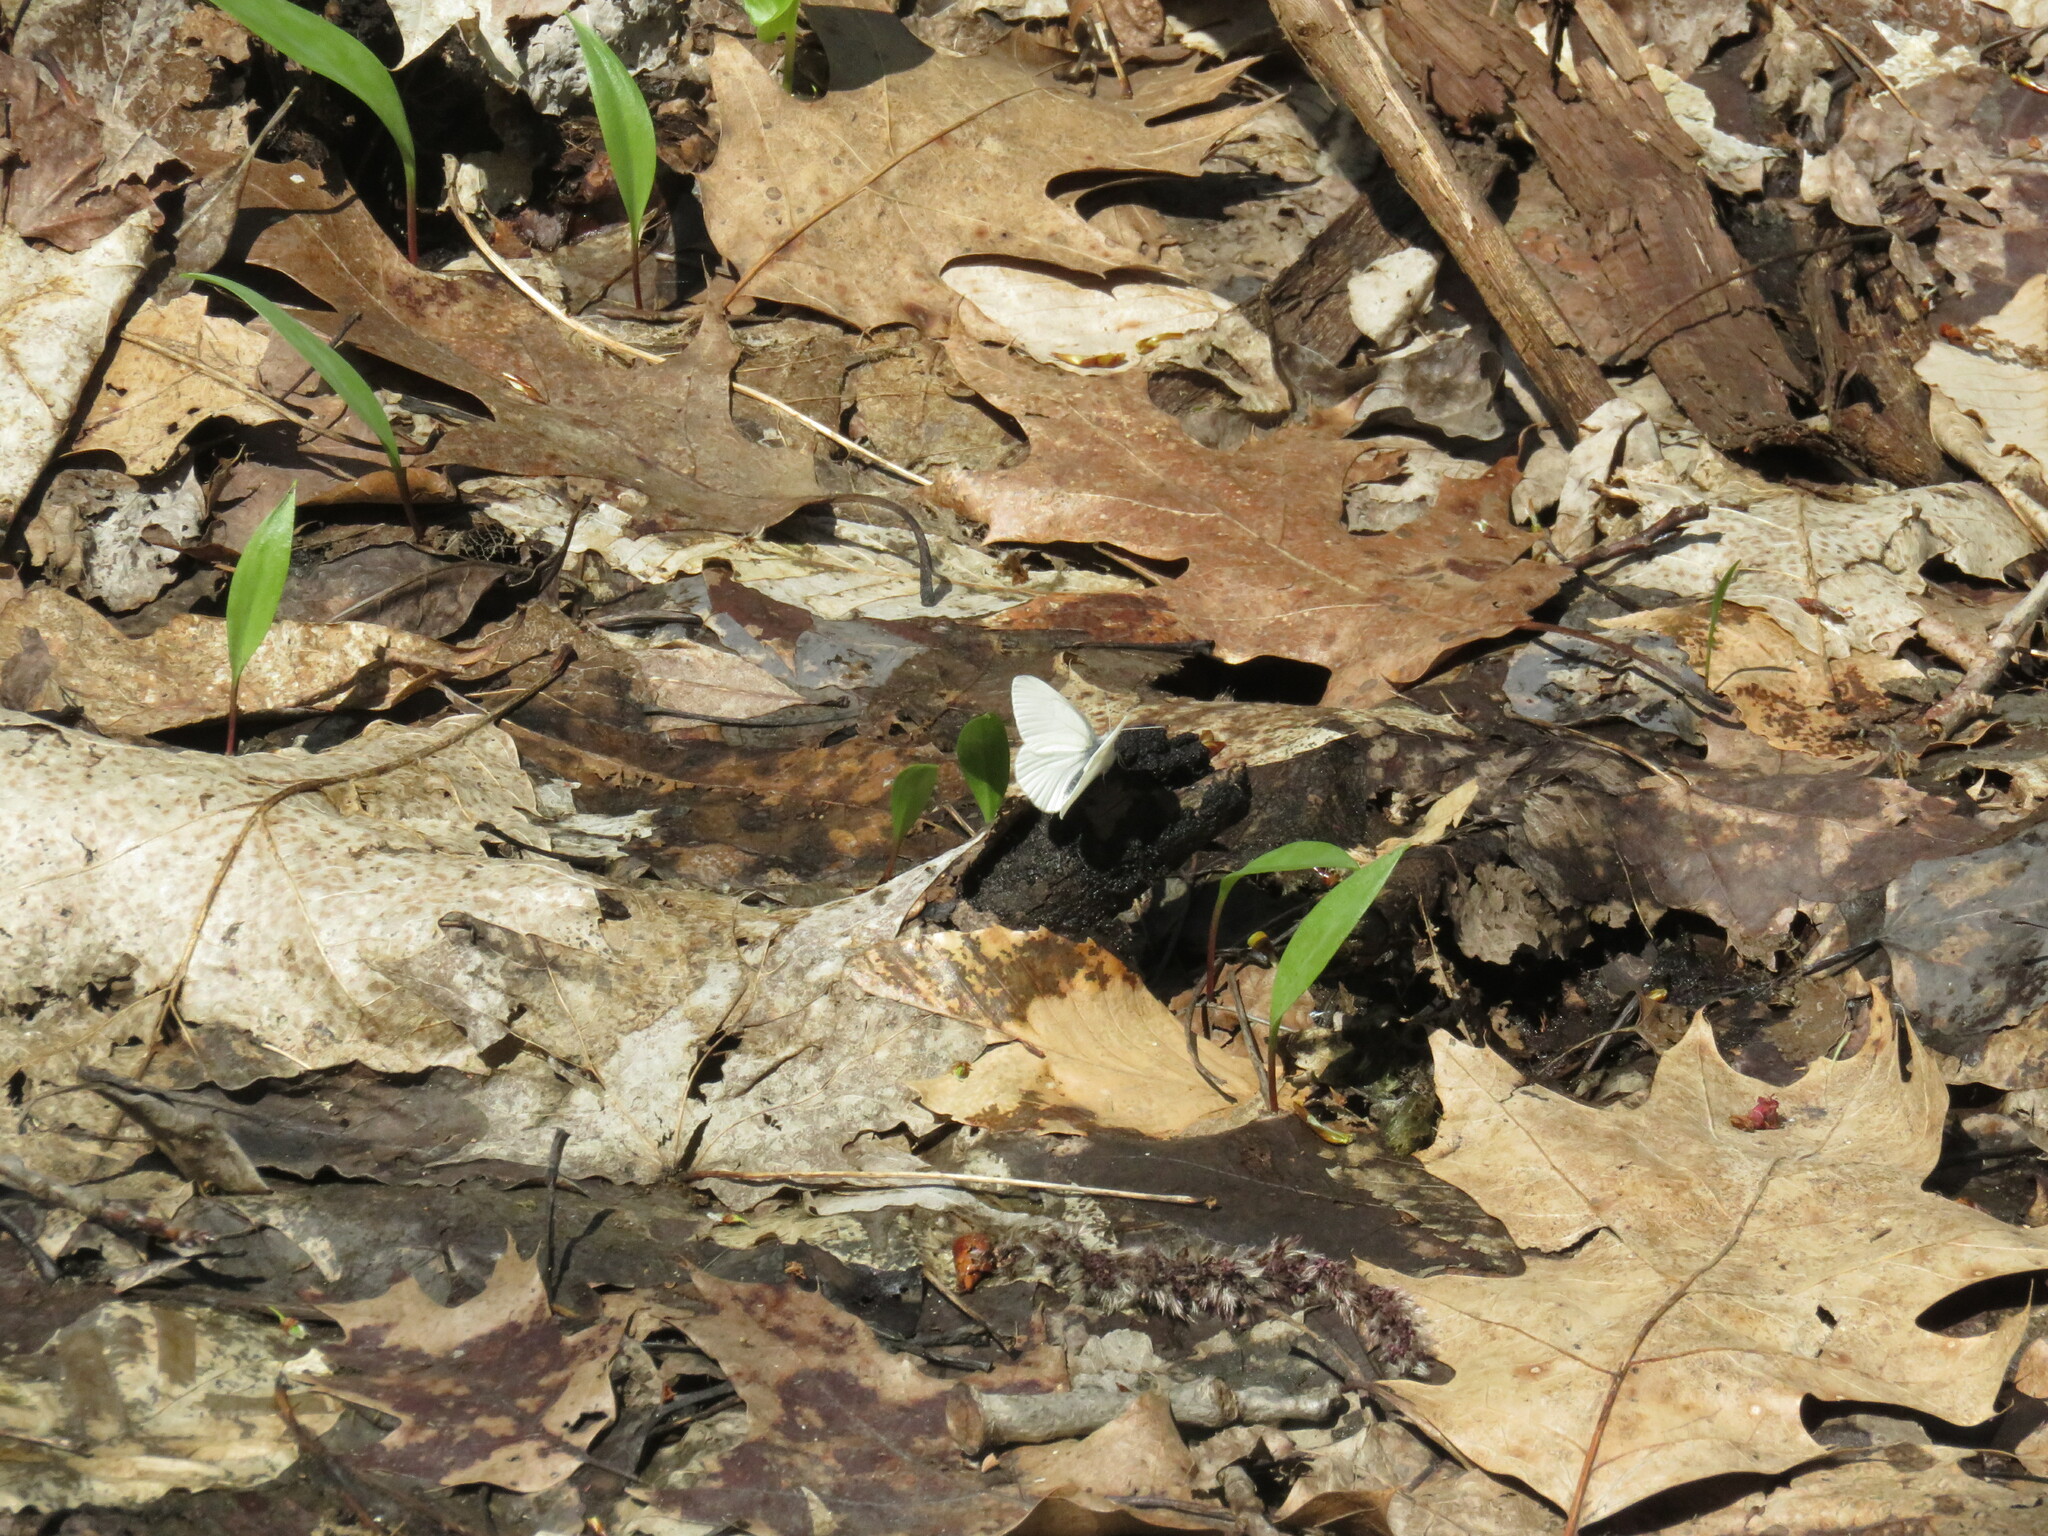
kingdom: Animalia
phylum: Arthropoda
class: Insecta
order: Lepidoptera
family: Pieridae
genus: Pieris
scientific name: Pieris virginiensis
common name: West virginia white
